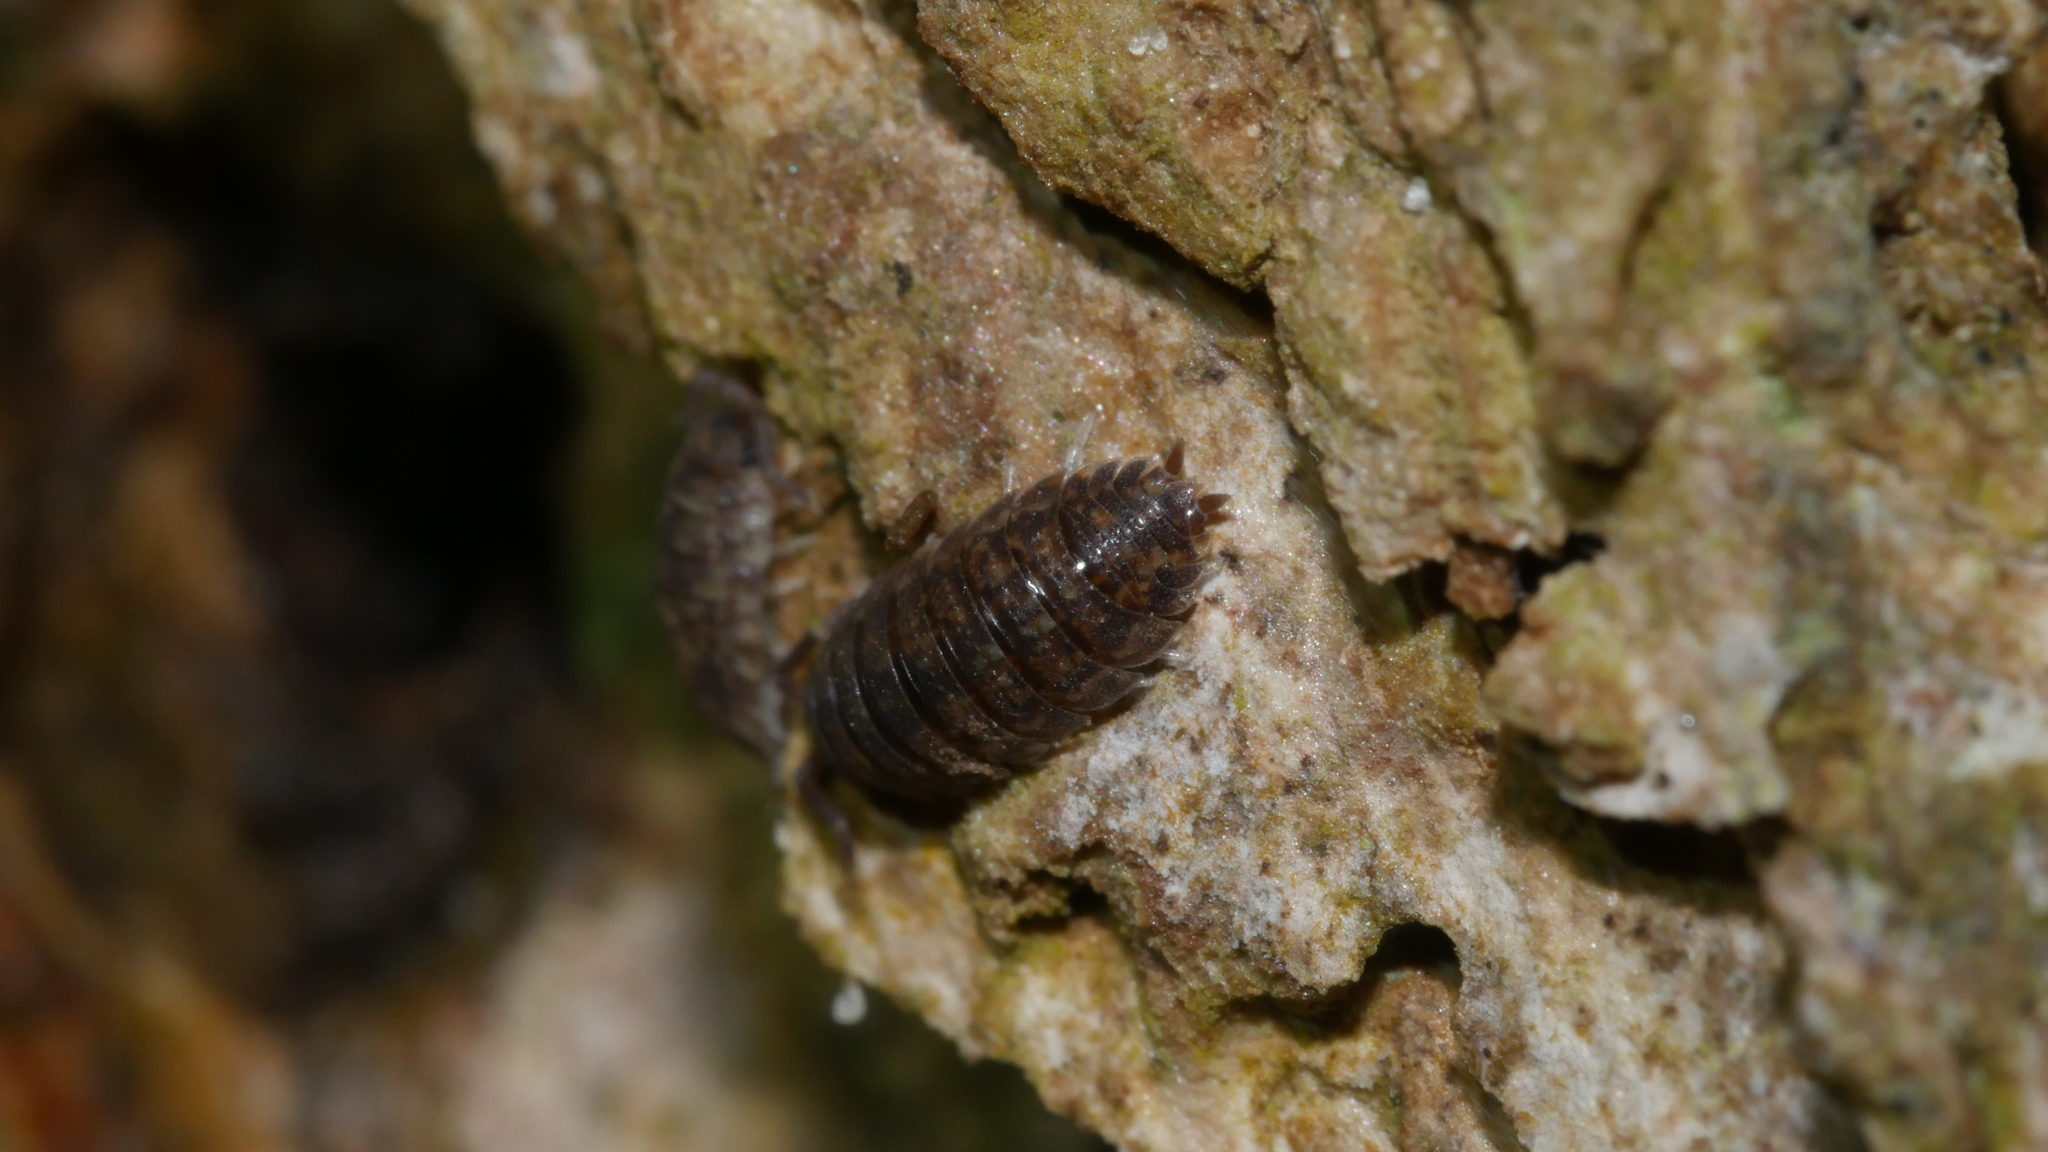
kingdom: Animalia
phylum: Arthropoda
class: Malacostraca
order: Isopoda
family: Porcellionidae
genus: Porcellio
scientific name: Porcellio scaber
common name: Common rough woodlouse
